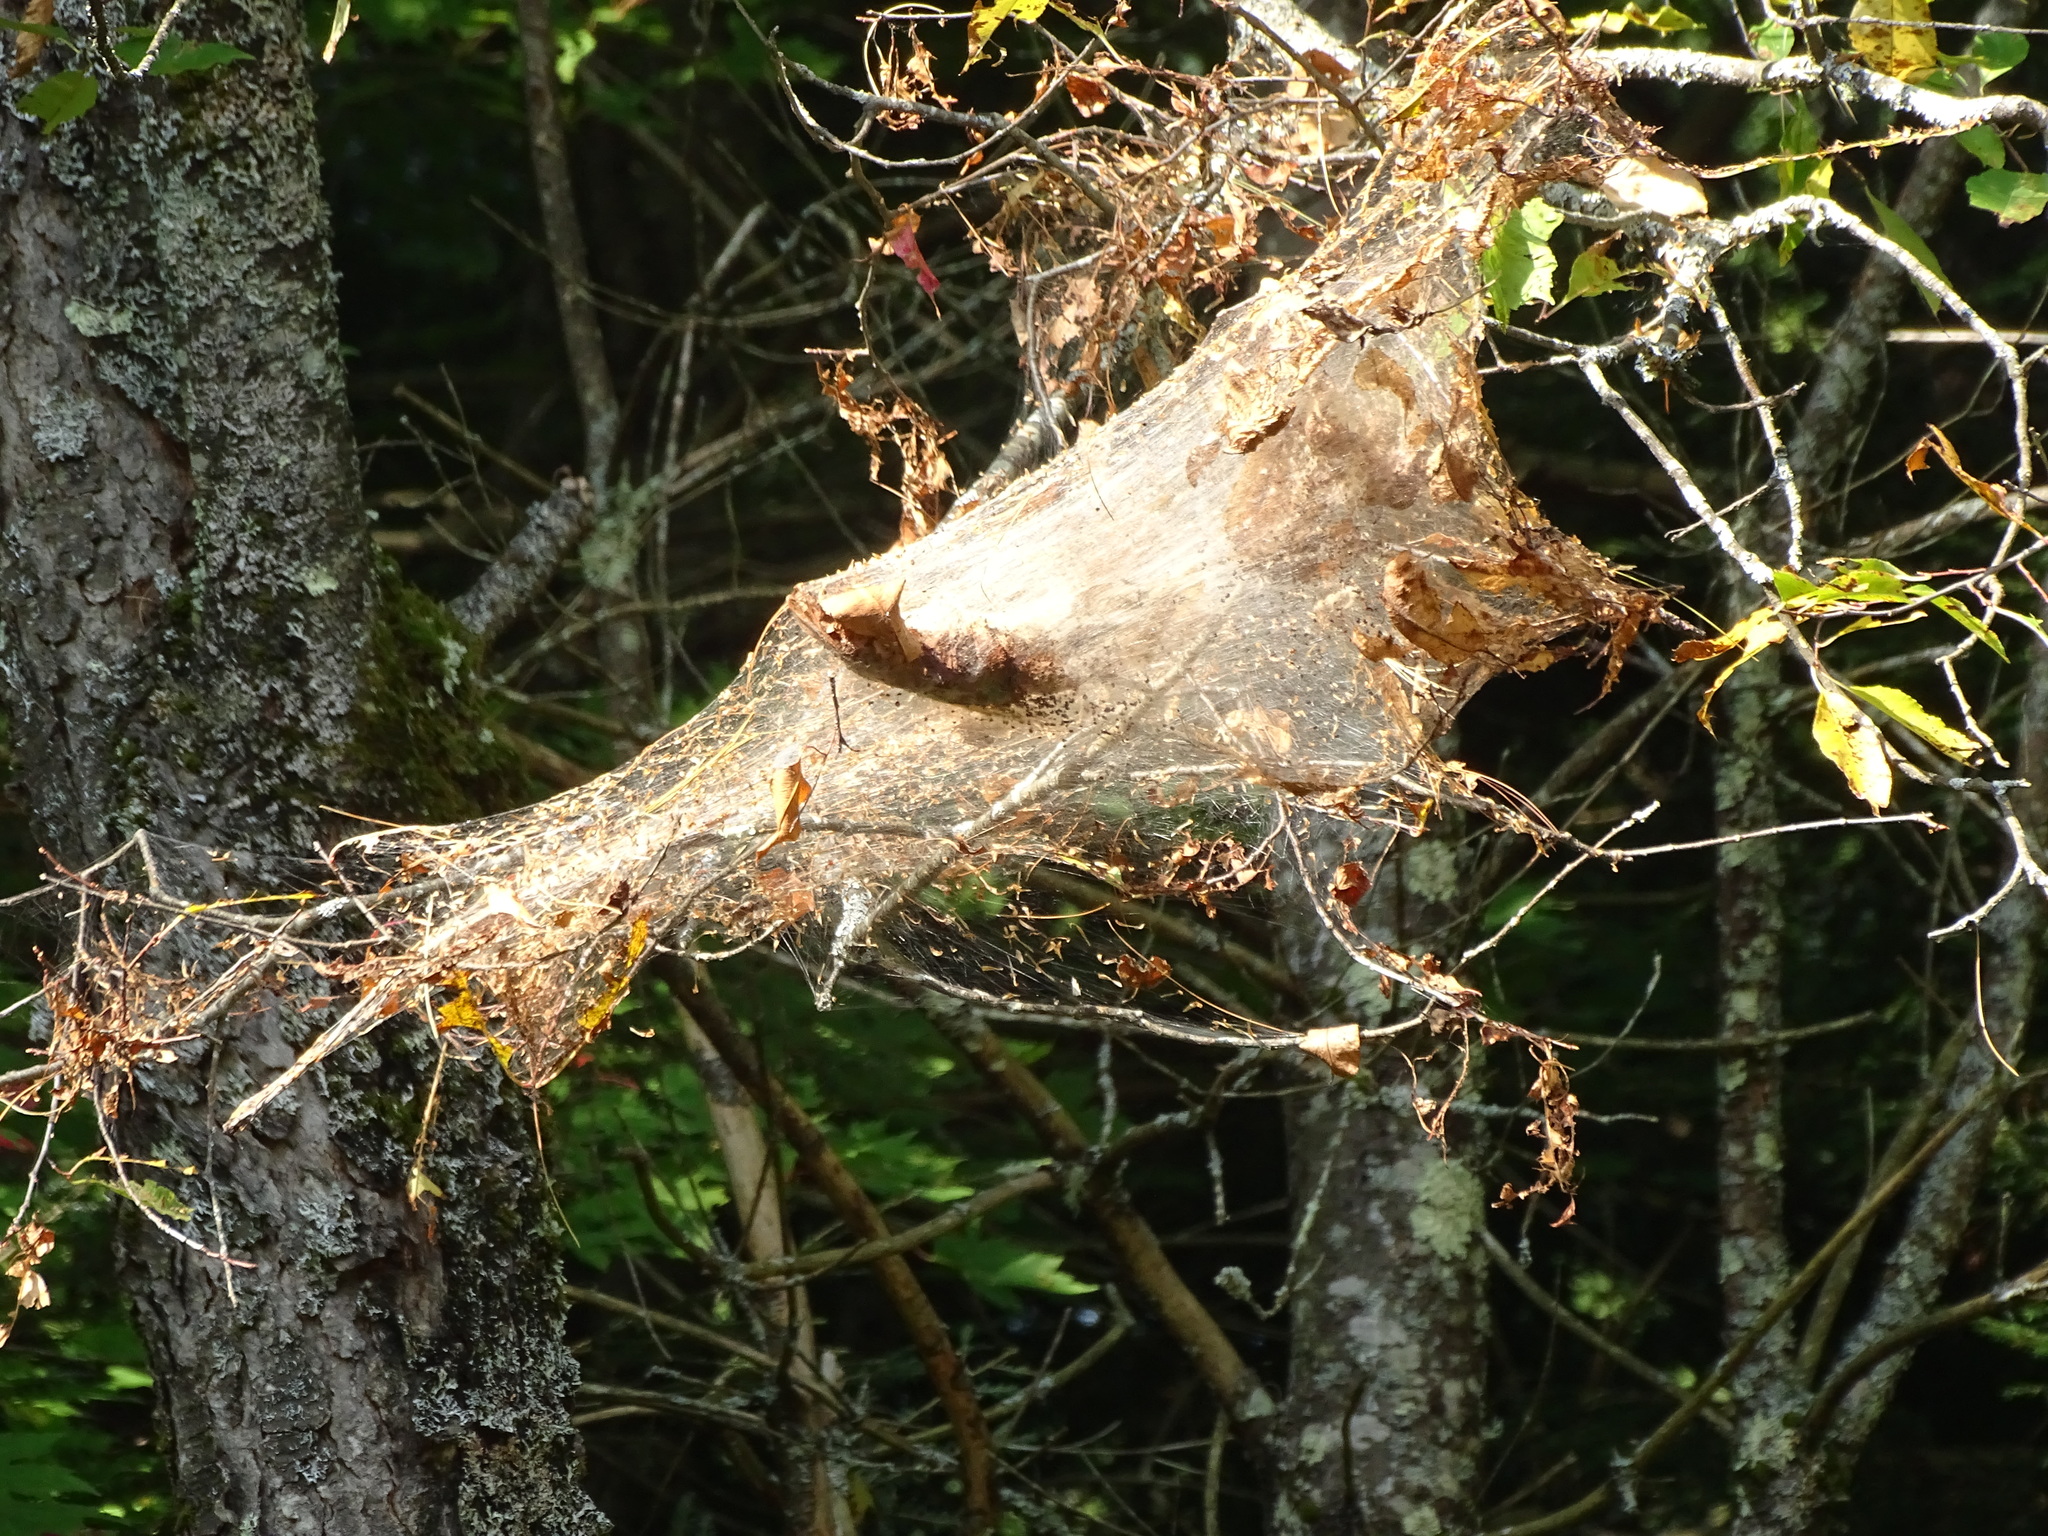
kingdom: Animalia
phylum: Arthropoda
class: Insecta
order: Lepidoptera
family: Erebidae
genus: Hyphantria
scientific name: Hyphantria cunea
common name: American white moth
